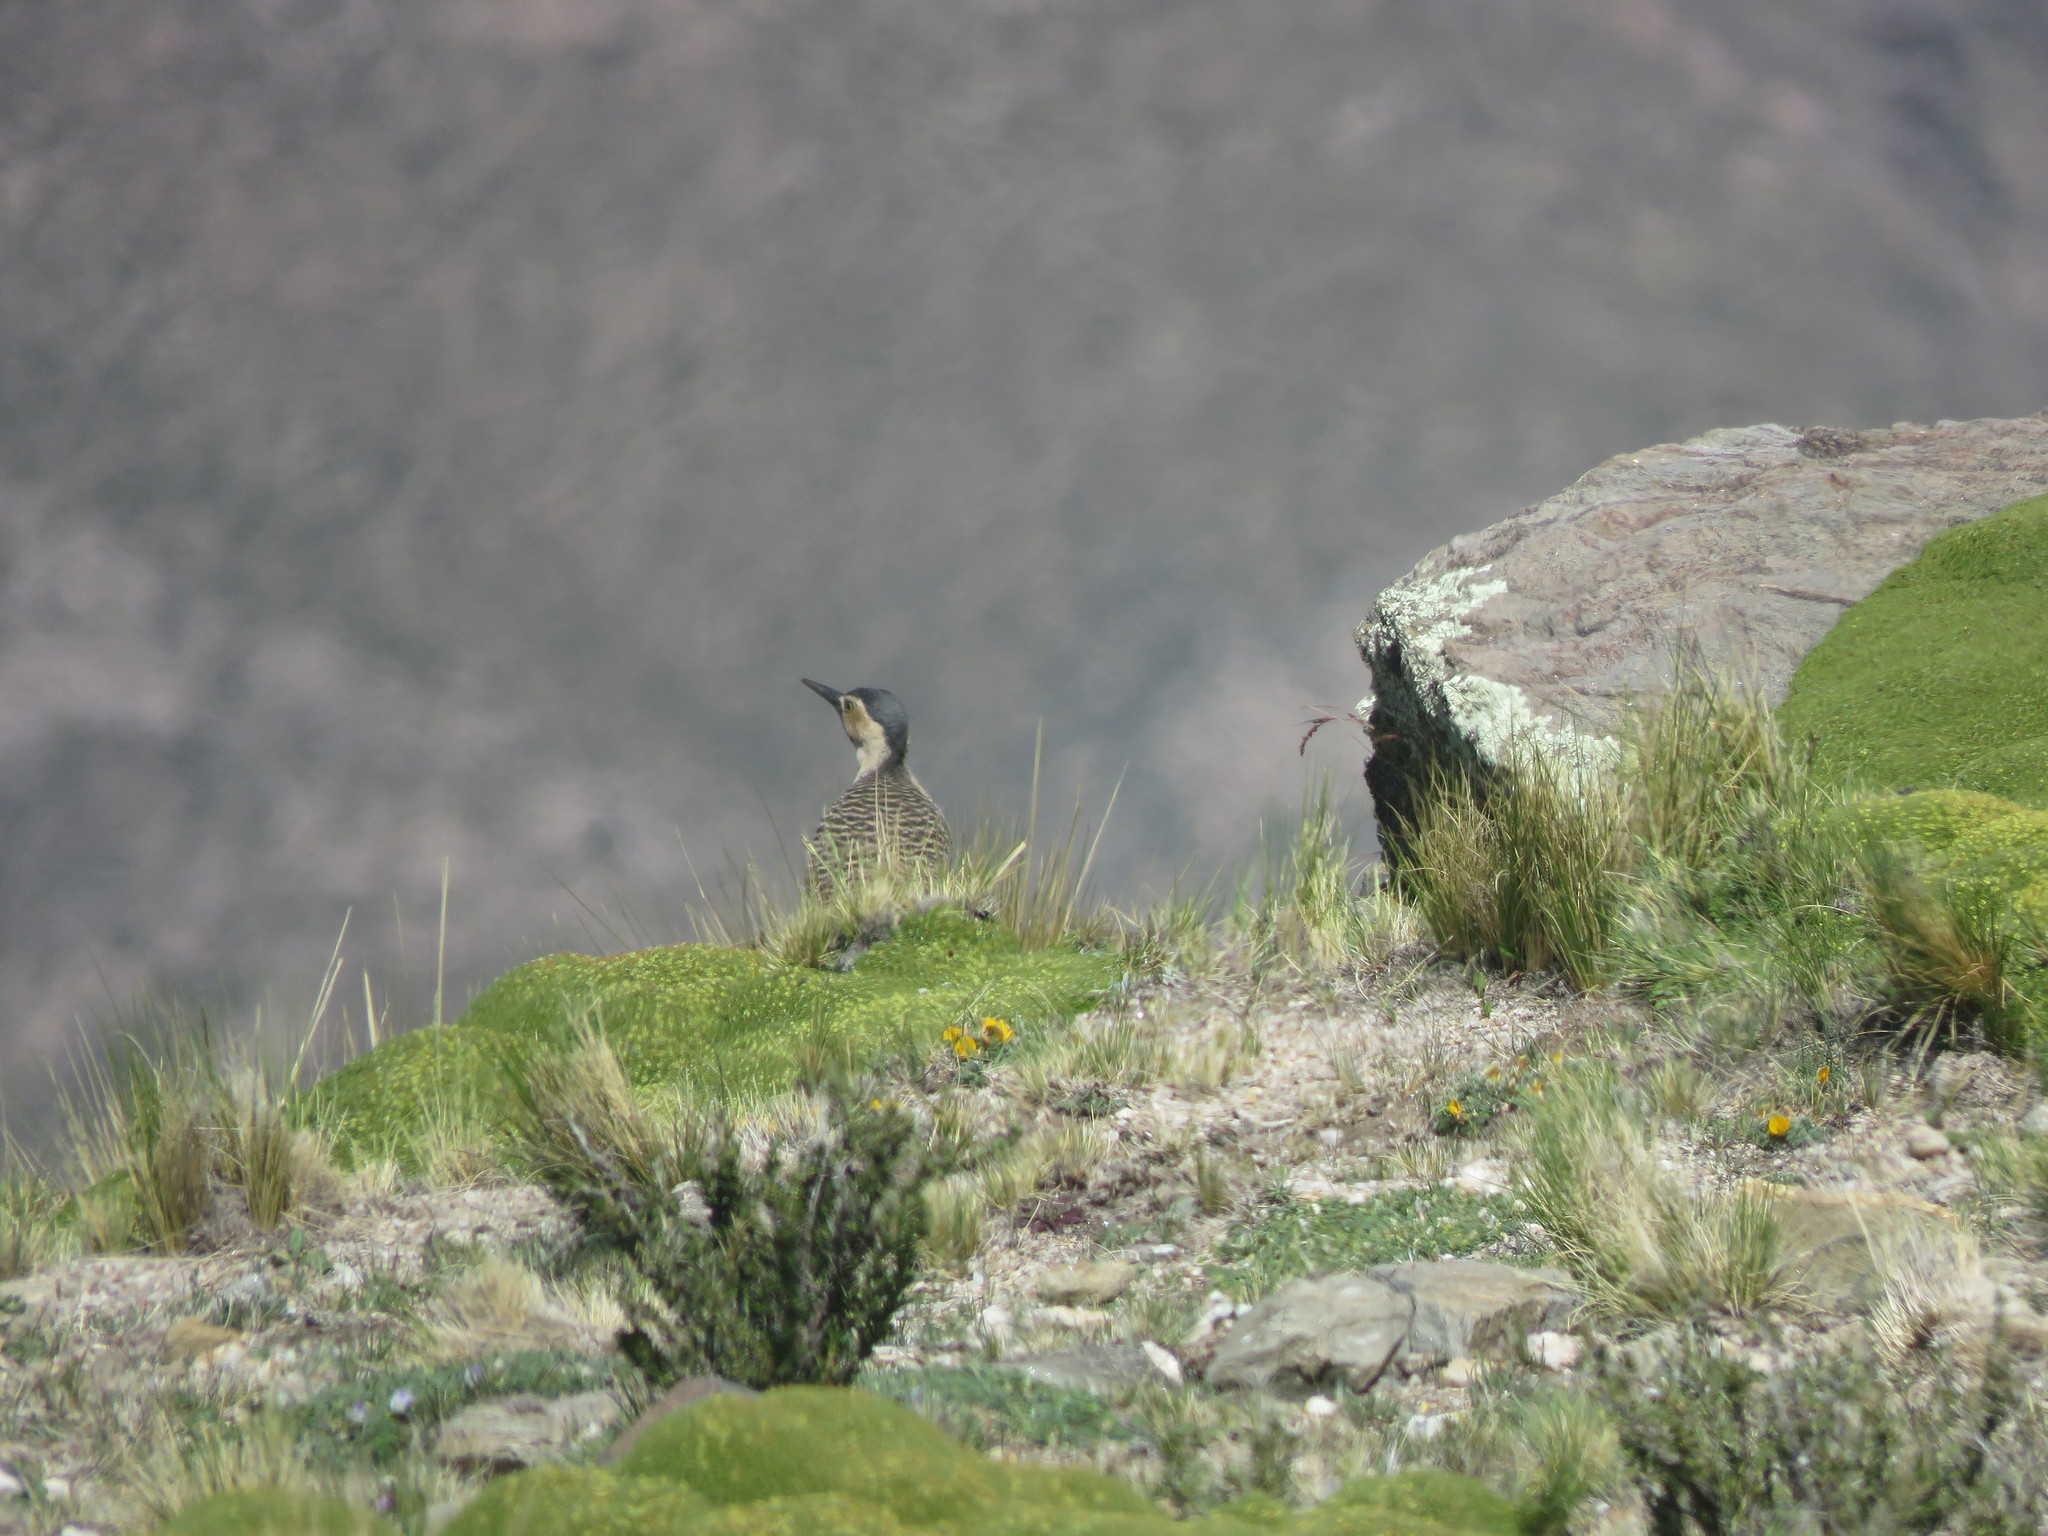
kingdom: Animalia
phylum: Chordata
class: Aves
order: Piciformes
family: Picidae
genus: Colaptes
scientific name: Colaptes rupicola
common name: Andean flicker
